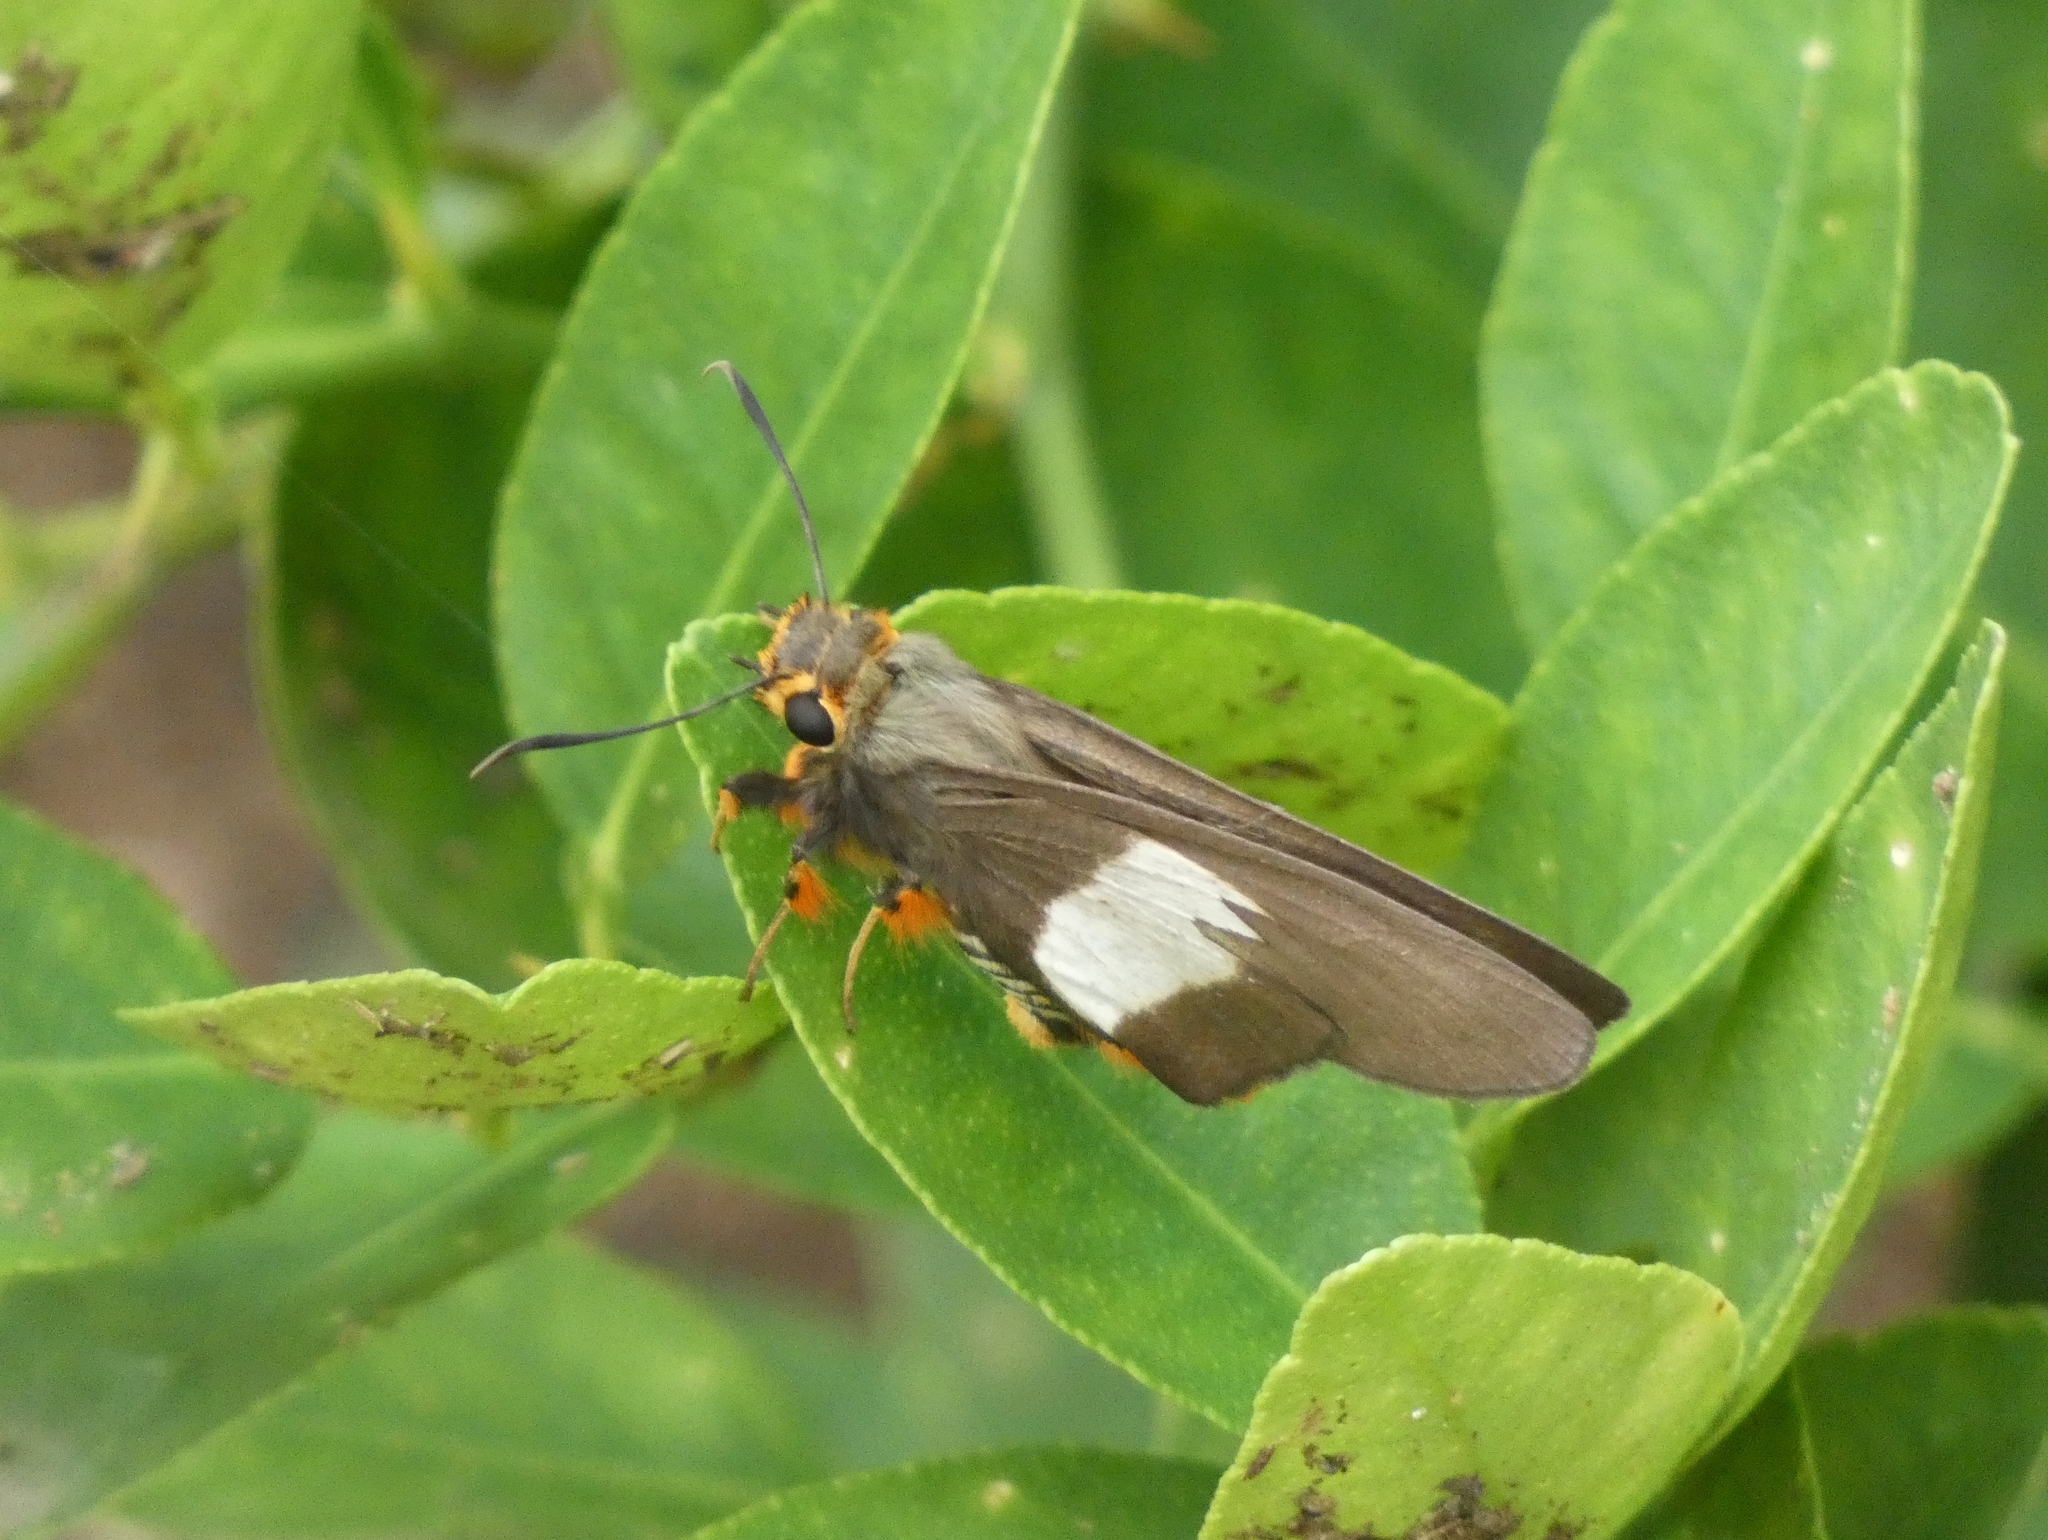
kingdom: Animalia
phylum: Arthropoda
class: Insecta
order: Lepidoptera
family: Hesperiidae
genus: Coeliades
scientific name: Coeliades forestan
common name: Striped policeman
